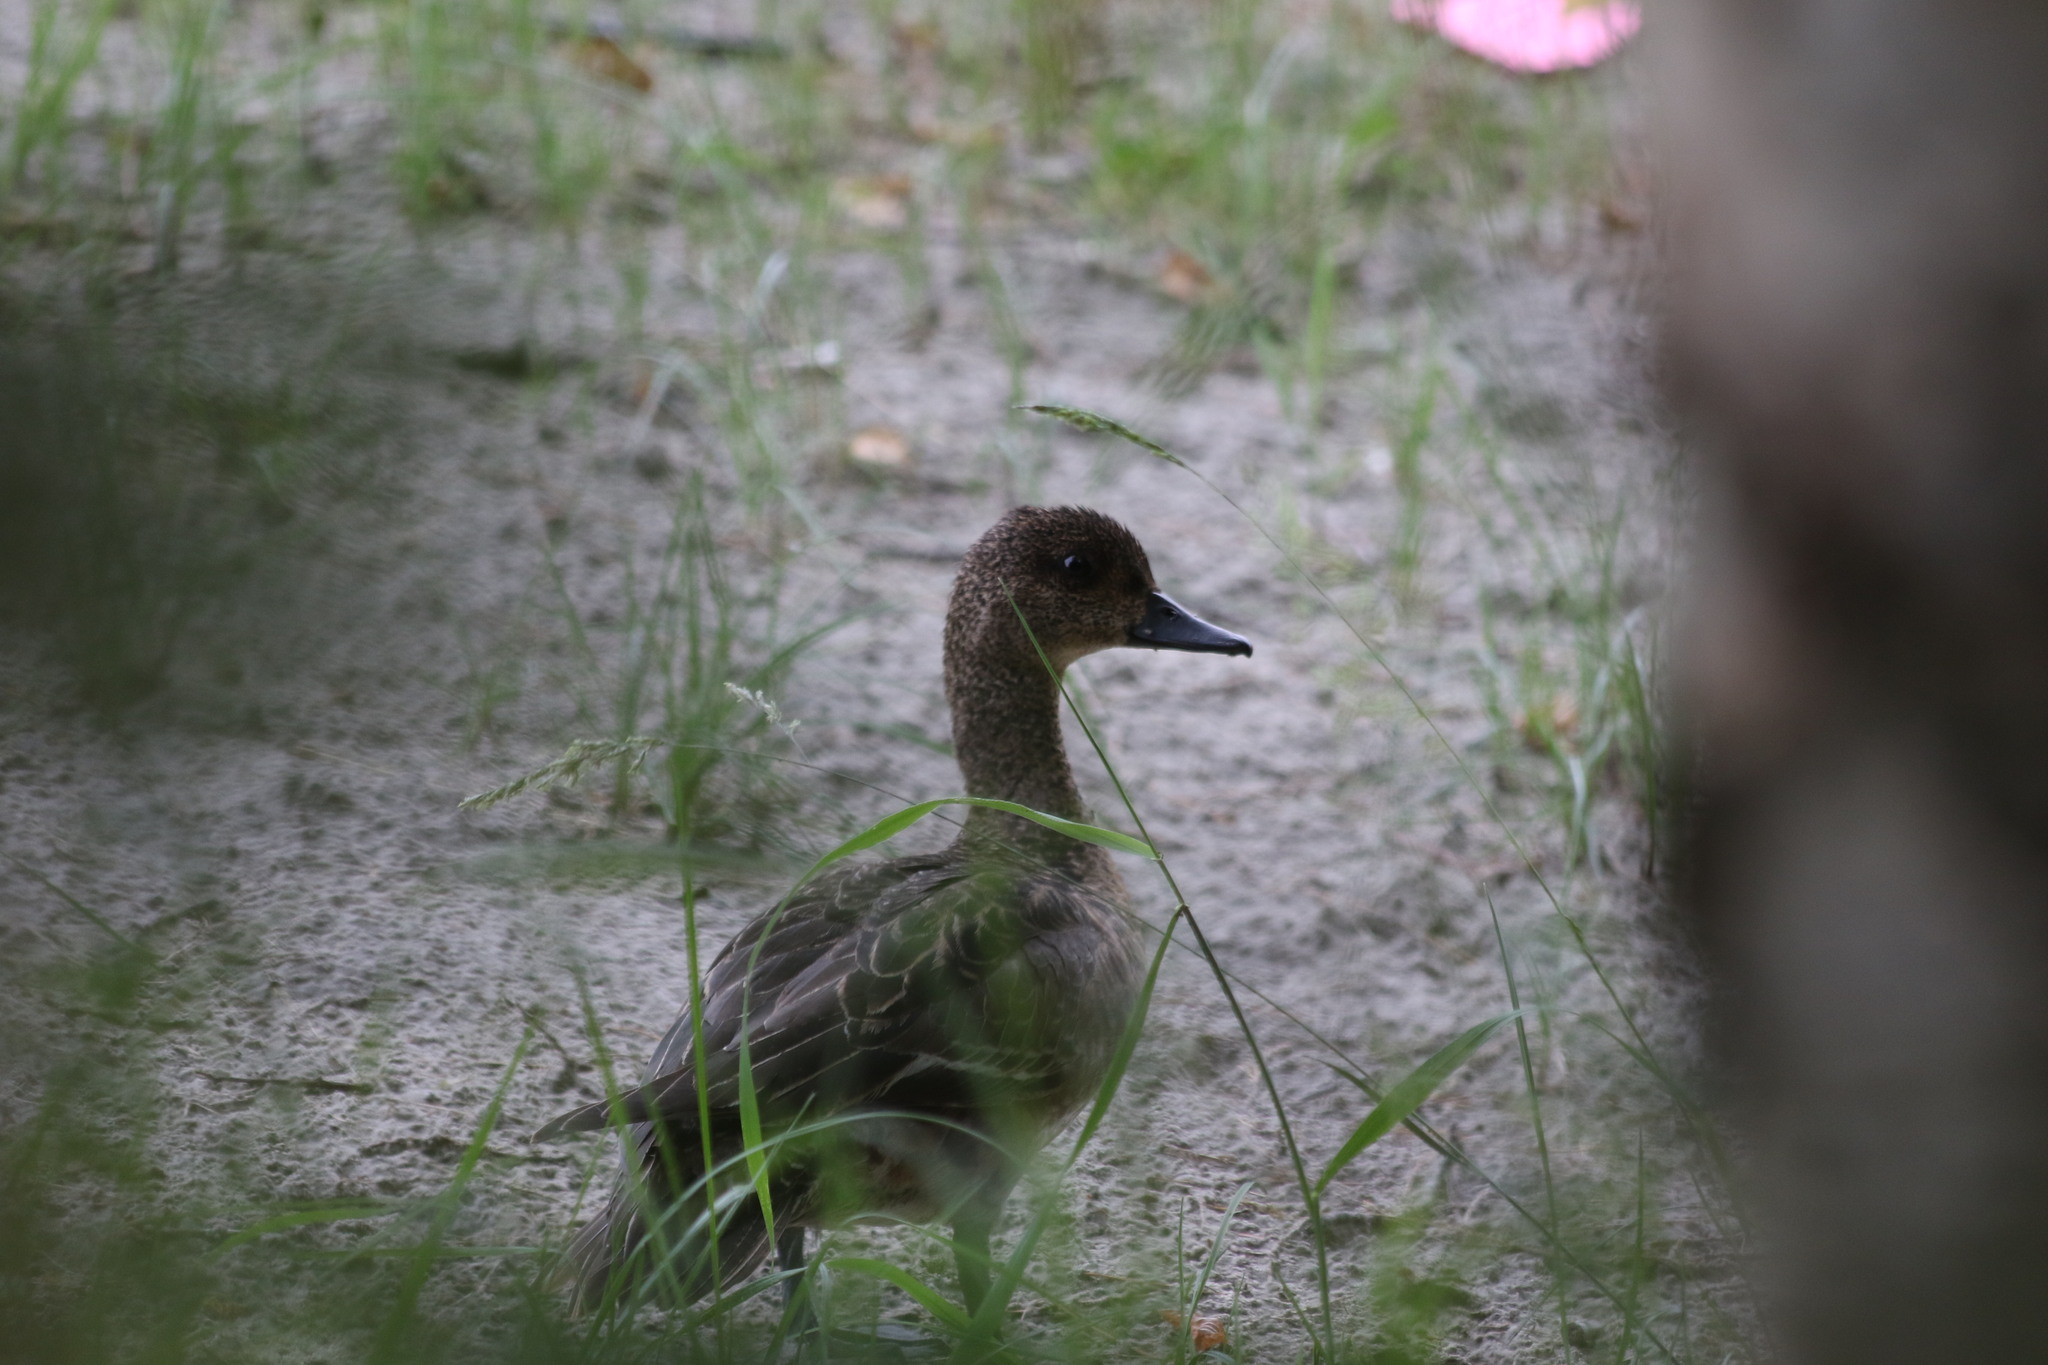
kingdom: Animalia
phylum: Chordata
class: Aves
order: Anseriformes
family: Anatidae
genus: Mareca
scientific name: Mareca penelope
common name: Eurasian wigeon
